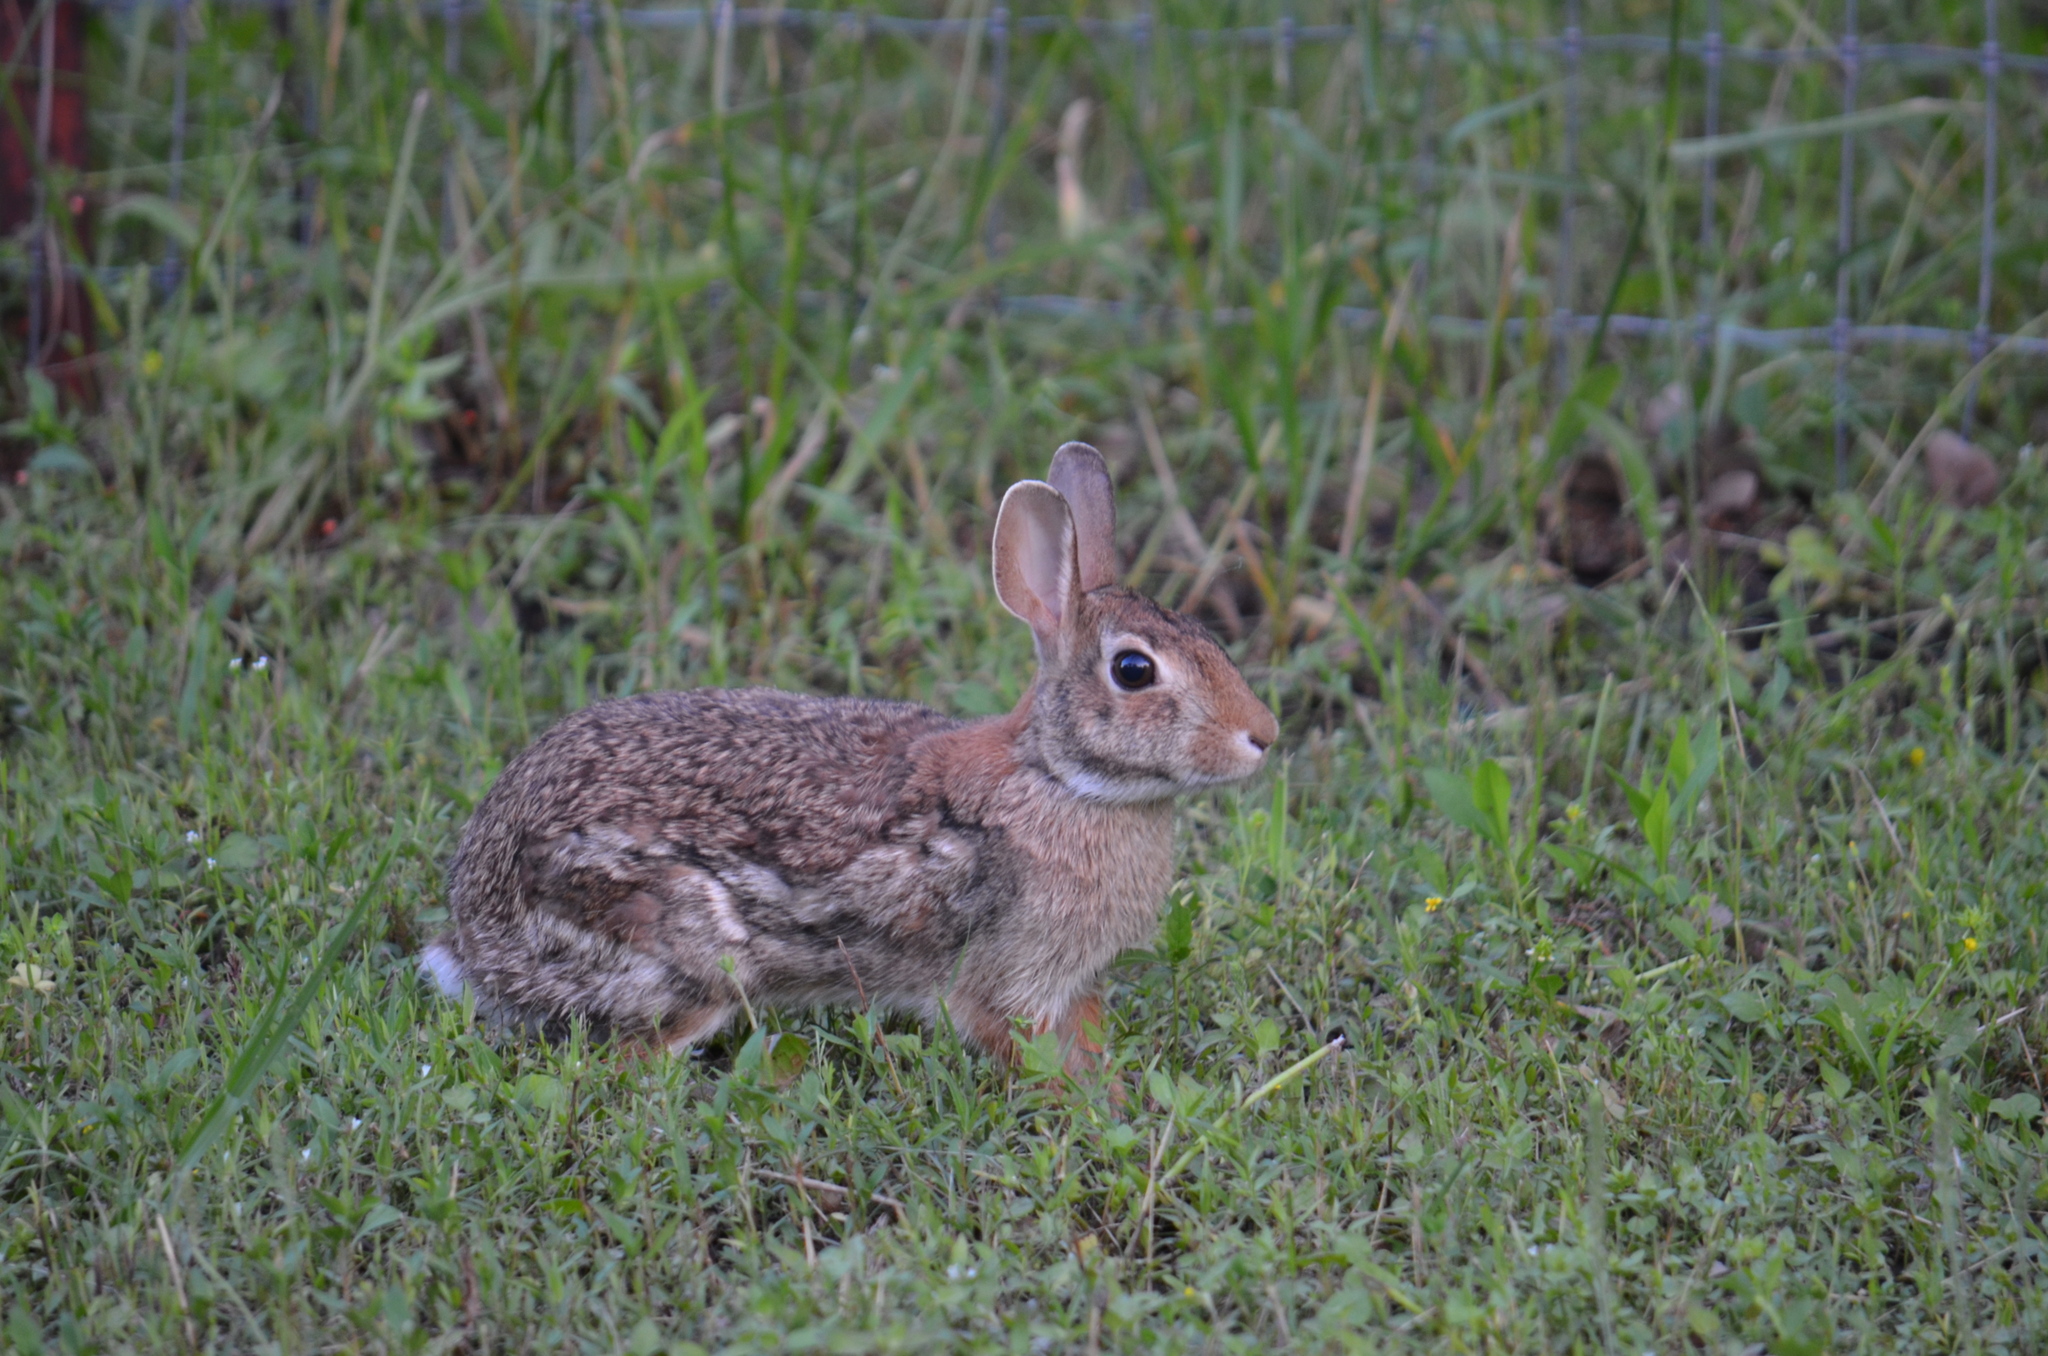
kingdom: Animalia
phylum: Chordata
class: Mammalia
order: Lagomorpha
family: Leporidae
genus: Sylvilagus
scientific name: Sylvilagus floridanus
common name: Eastern cottontail
